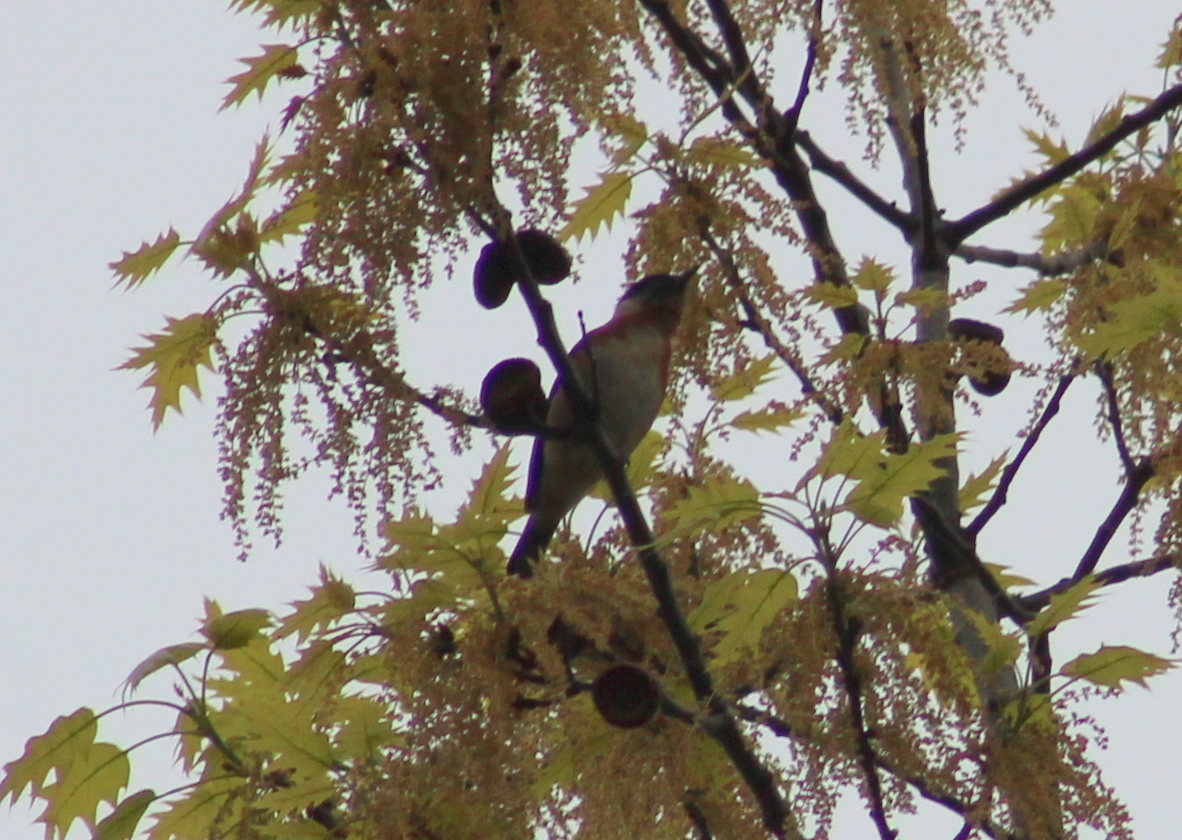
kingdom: Animalia
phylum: Chordata
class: Aves
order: Passeriformes
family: Parulidae
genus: Setophaga
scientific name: Setophaga castanea
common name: Bay-breasted warbler
